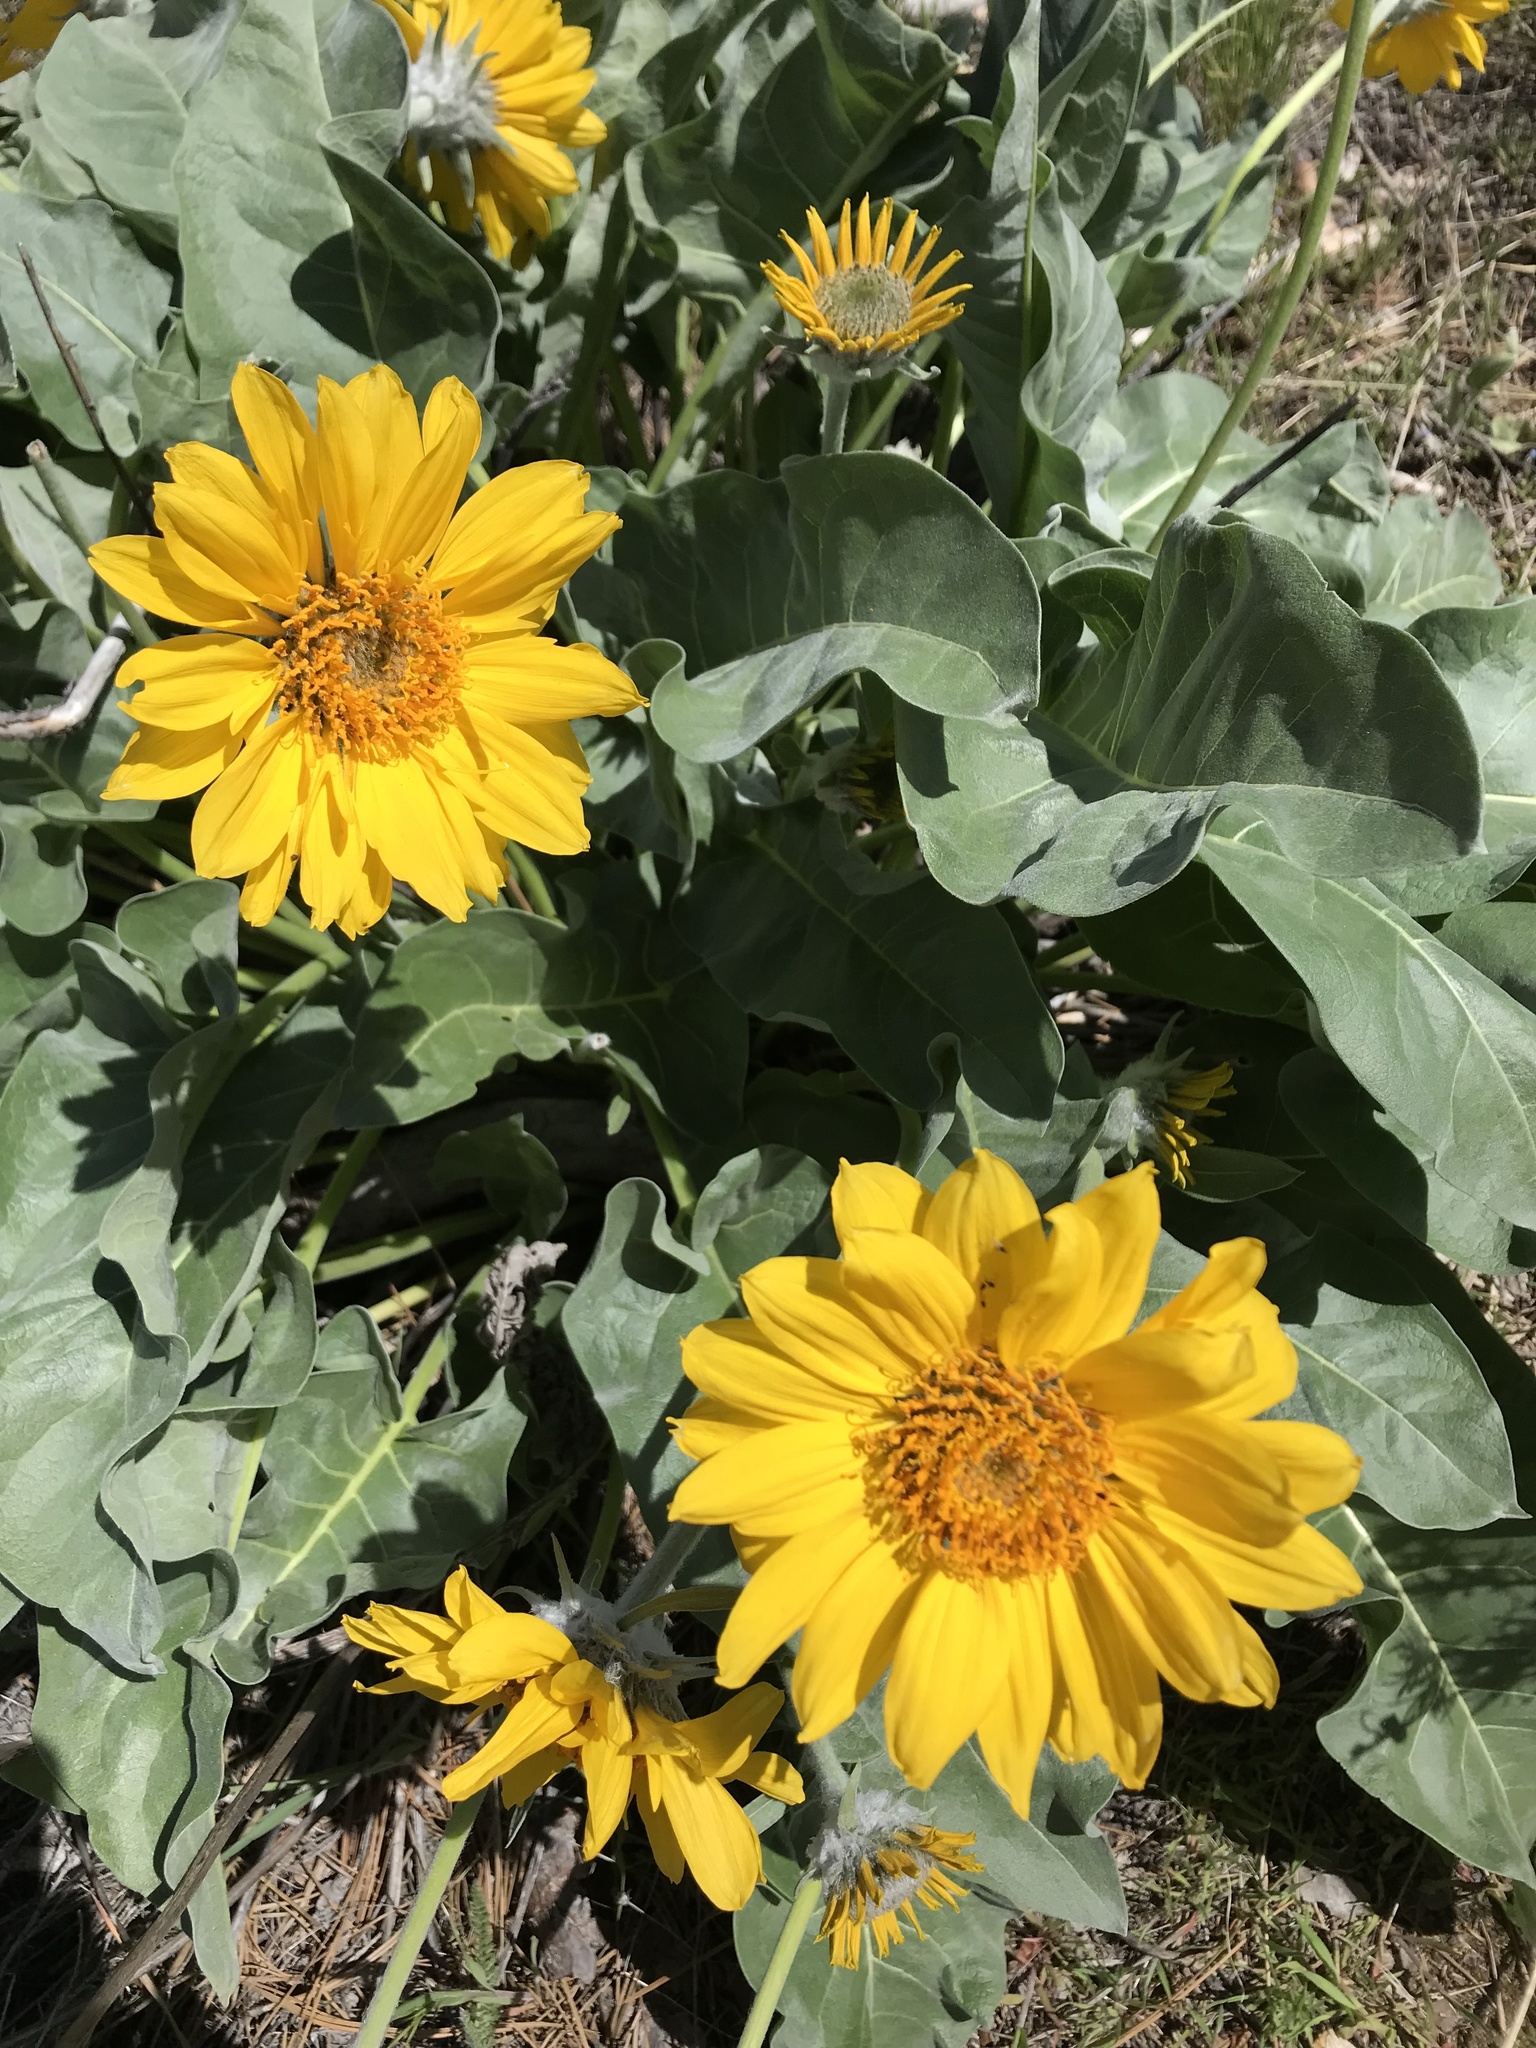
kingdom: Plantae
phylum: Tracheophyta
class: Magnoliopsida
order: Asterales
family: Asteraceae
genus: Wyethia
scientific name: Wyethia sagittata
